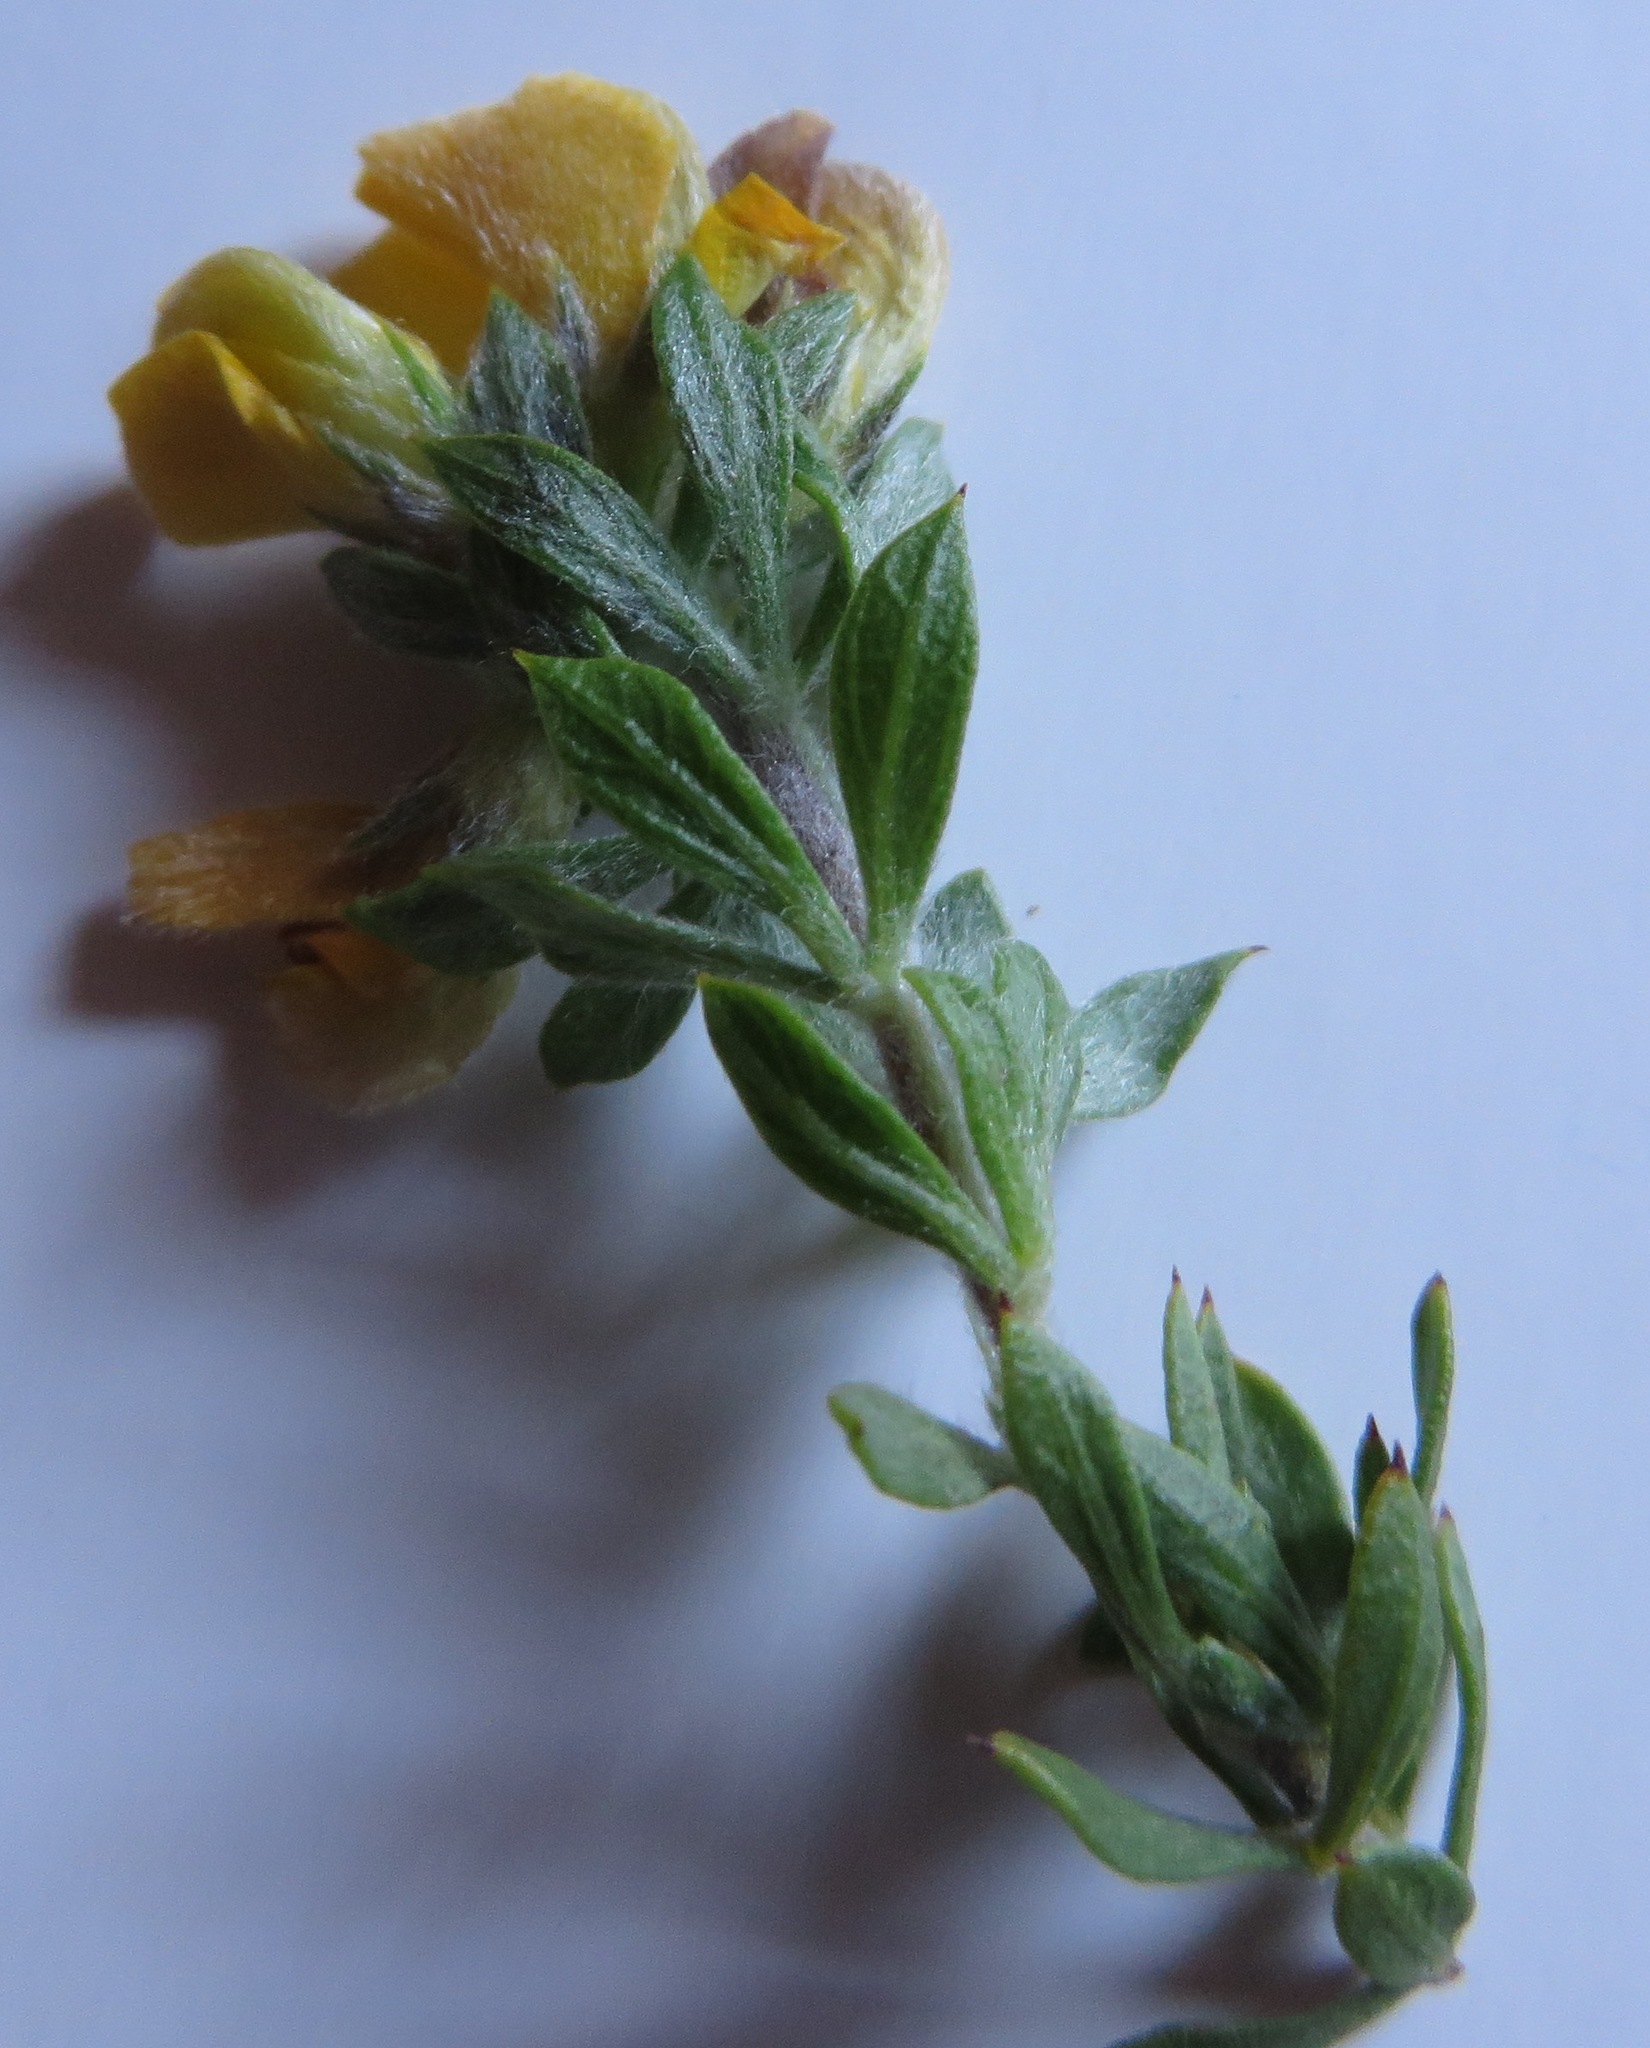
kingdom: Plantae
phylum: Tracheophyta
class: Magnoliopsida
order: Fabales
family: Fabaceae
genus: Aspalathus
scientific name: Aspalathus cytisoides
